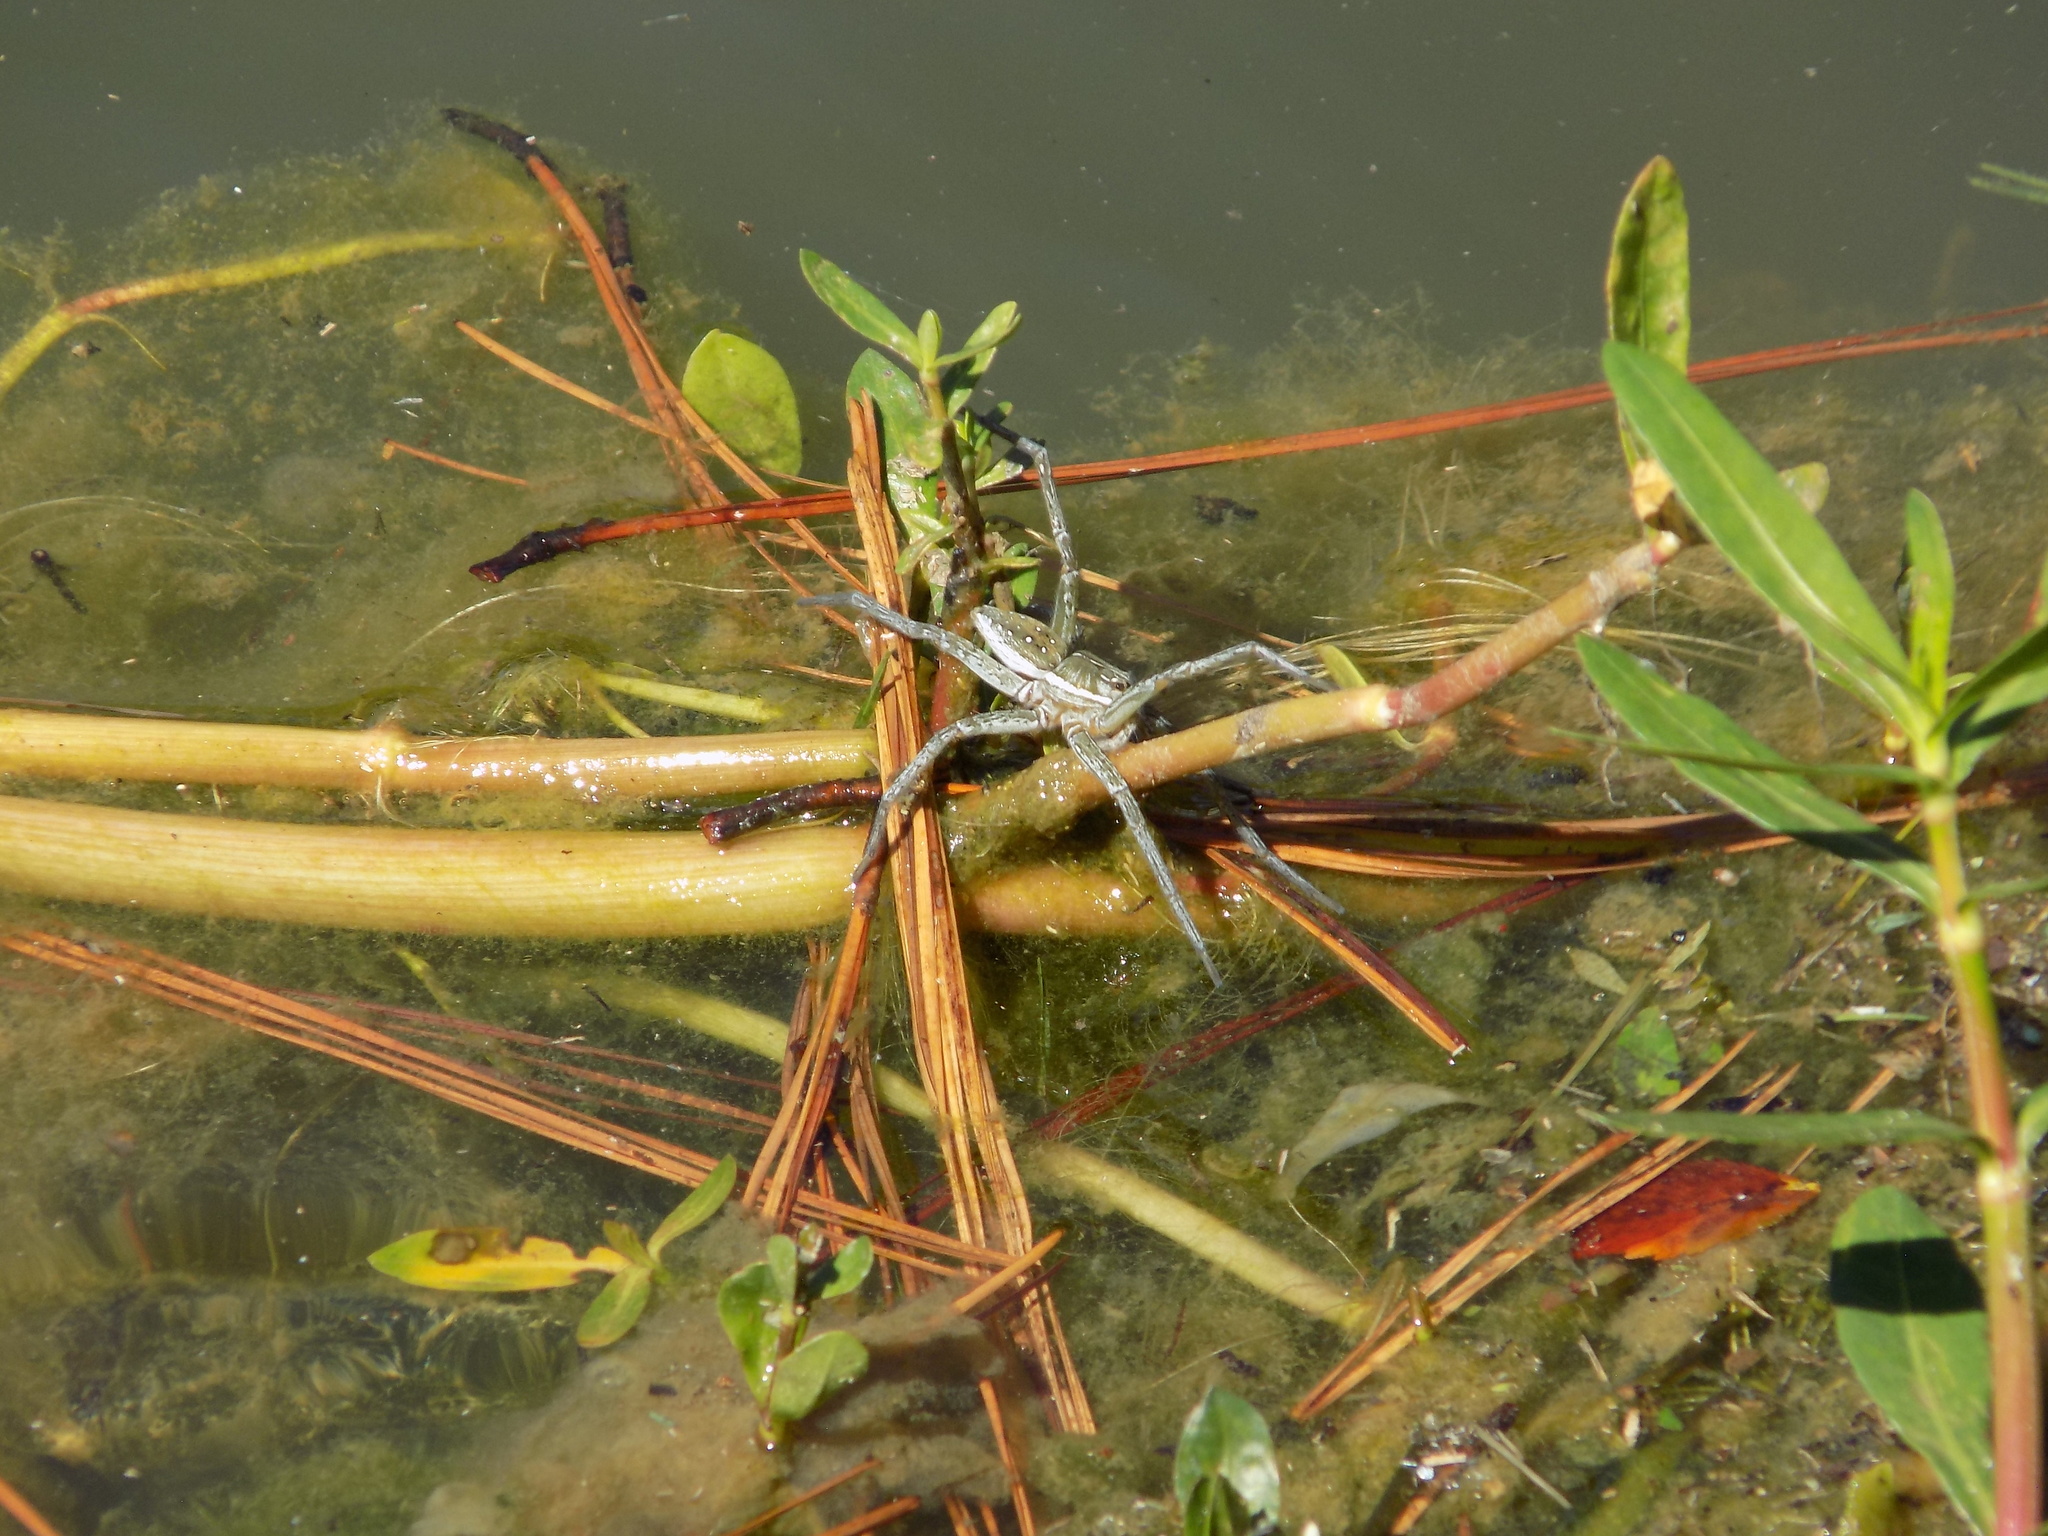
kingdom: Animalia
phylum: Arthropoda
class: Arachnida
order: Araneae
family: Pisauridae
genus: Dolomedes
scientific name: Dolomedes triton
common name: Six-spotted fishing spider
